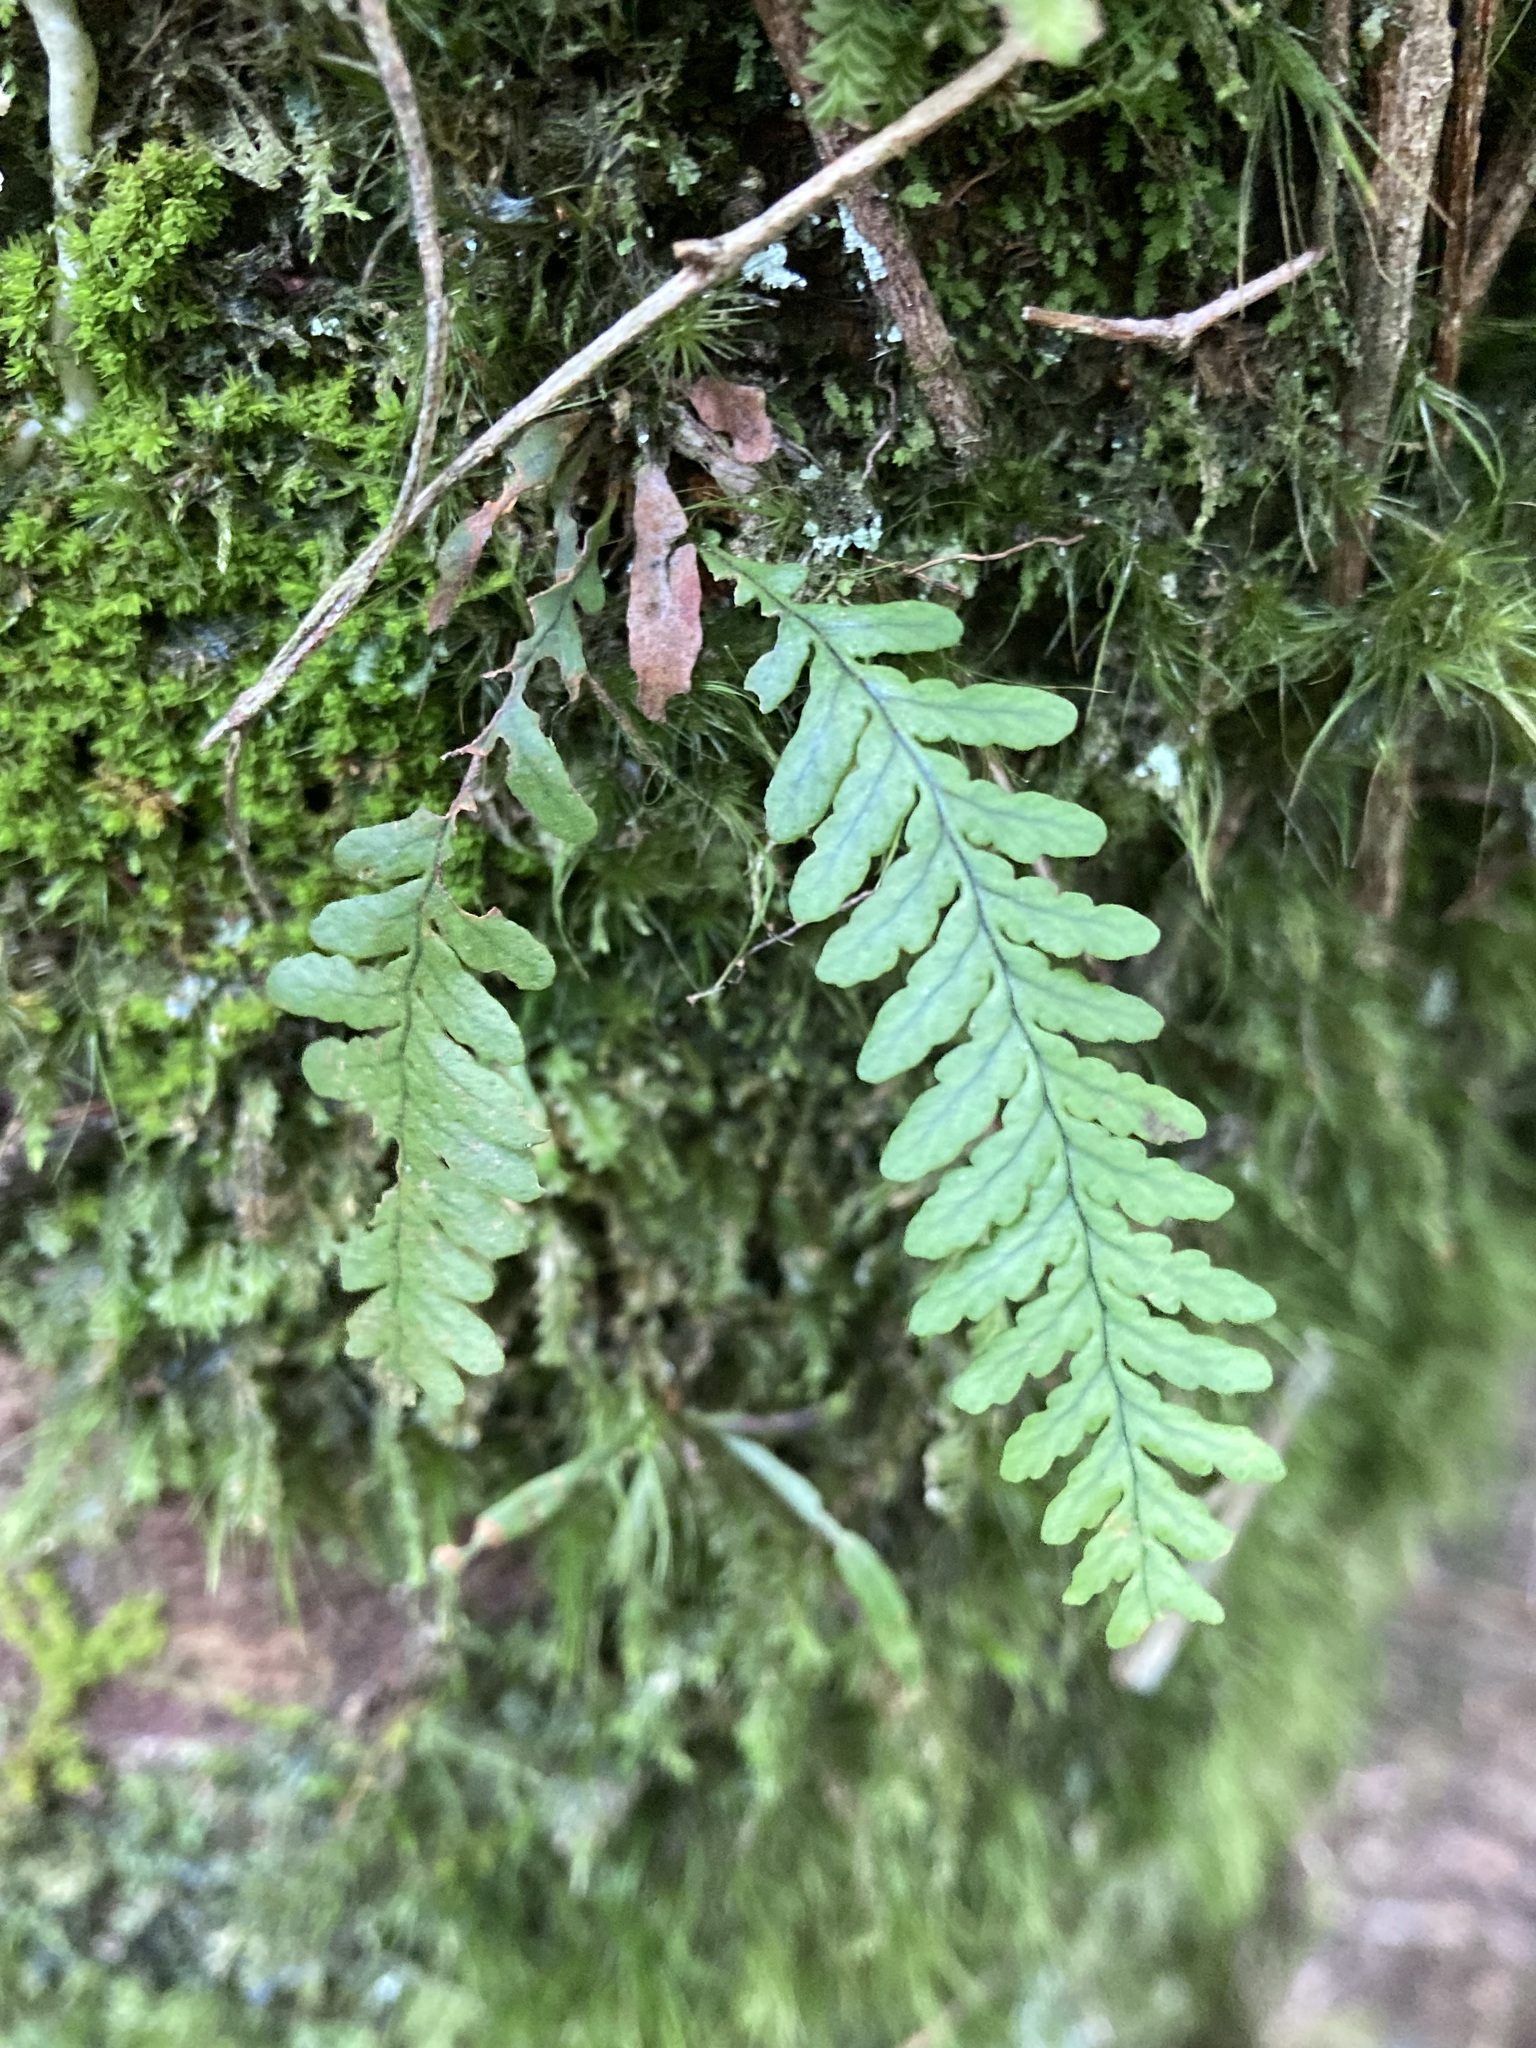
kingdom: Plantae
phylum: Tracheophyta
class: Polypodiopsida
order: Polypodiales
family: Polypodiaceae
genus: Notogrammitis
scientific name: Notogrammitis heterophylla
